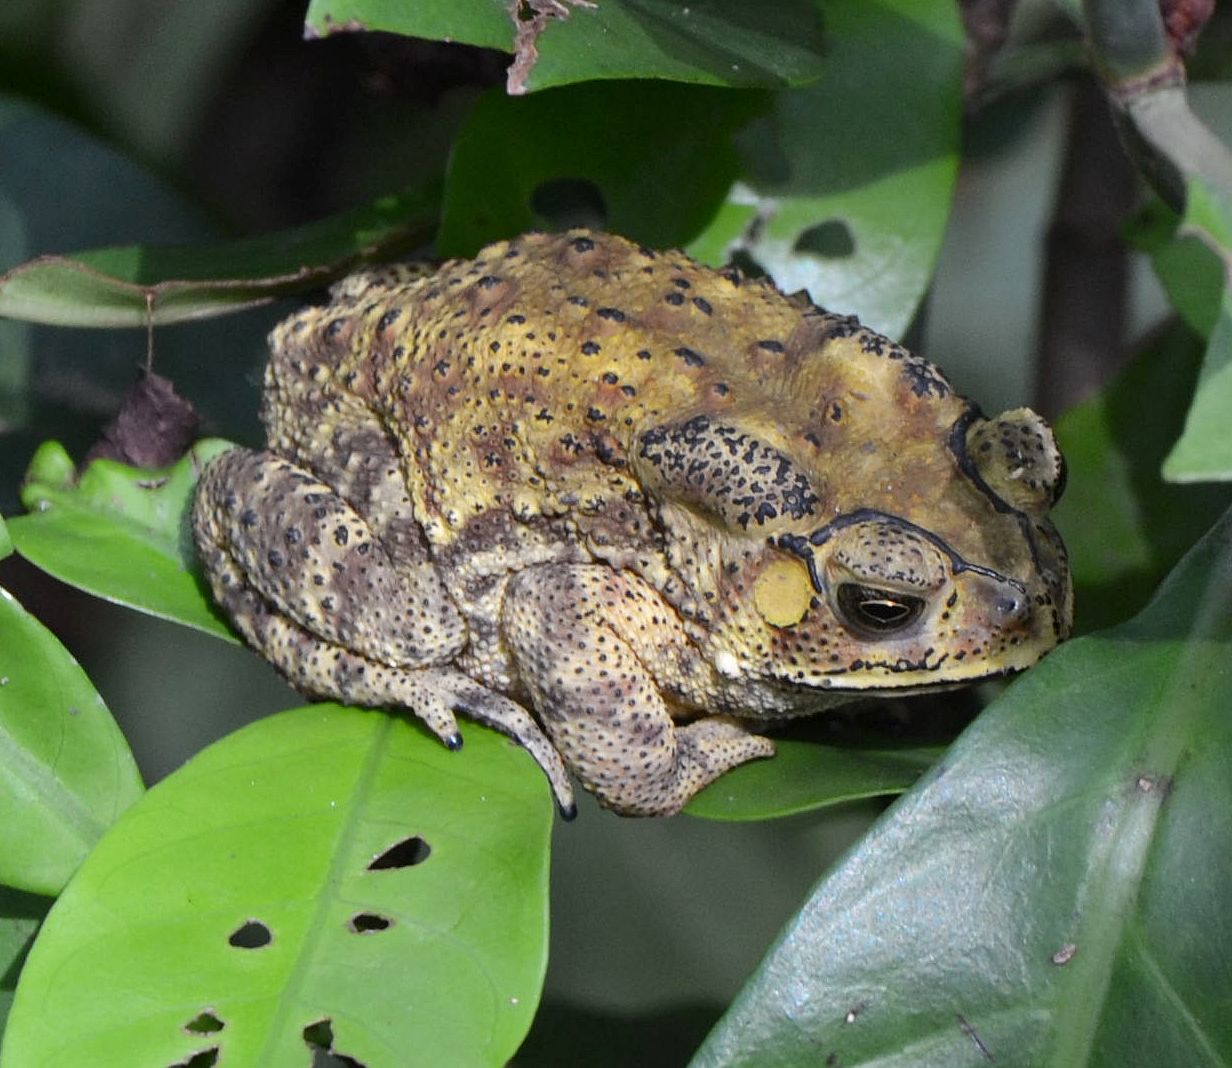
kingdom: Animalia
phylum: Chordata
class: Amphibia
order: Anura
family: Bufonidae
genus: Duttaphrynus
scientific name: Duttaphrynus melanostictus
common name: Common sunda toad
